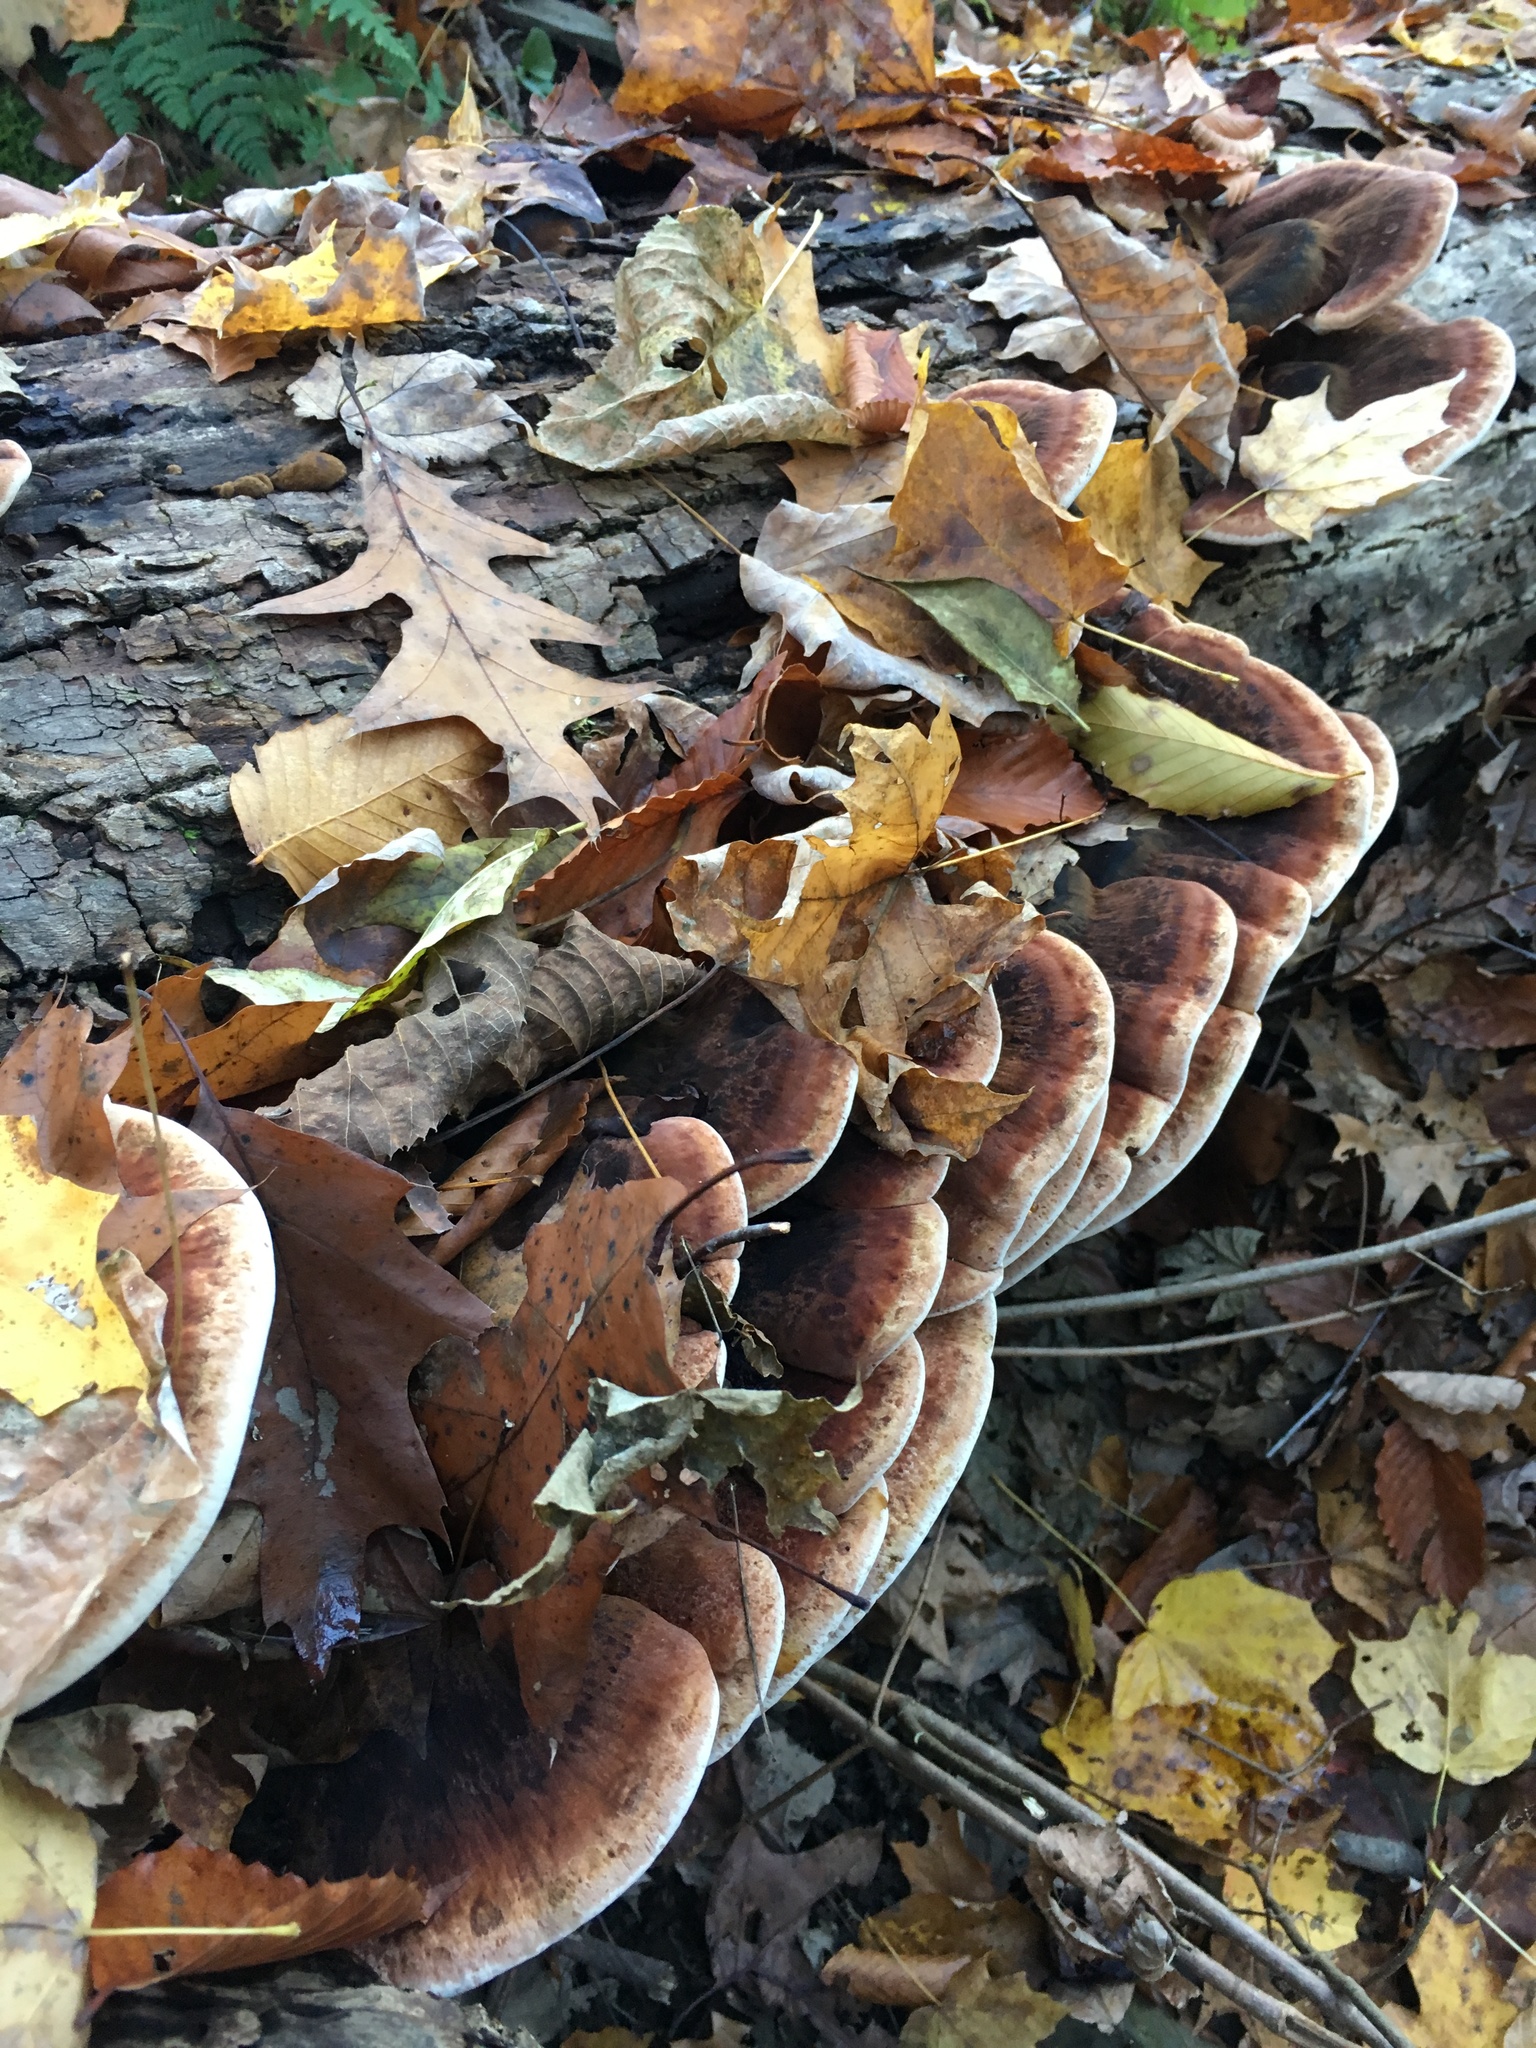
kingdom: Fungi
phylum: Basidiomycota
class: Agaricomycetes
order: Polyporales
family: Ischnodermataceae
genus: Ischnoderma
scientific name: Ischnoderma resinosum
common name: Resinous polypore
